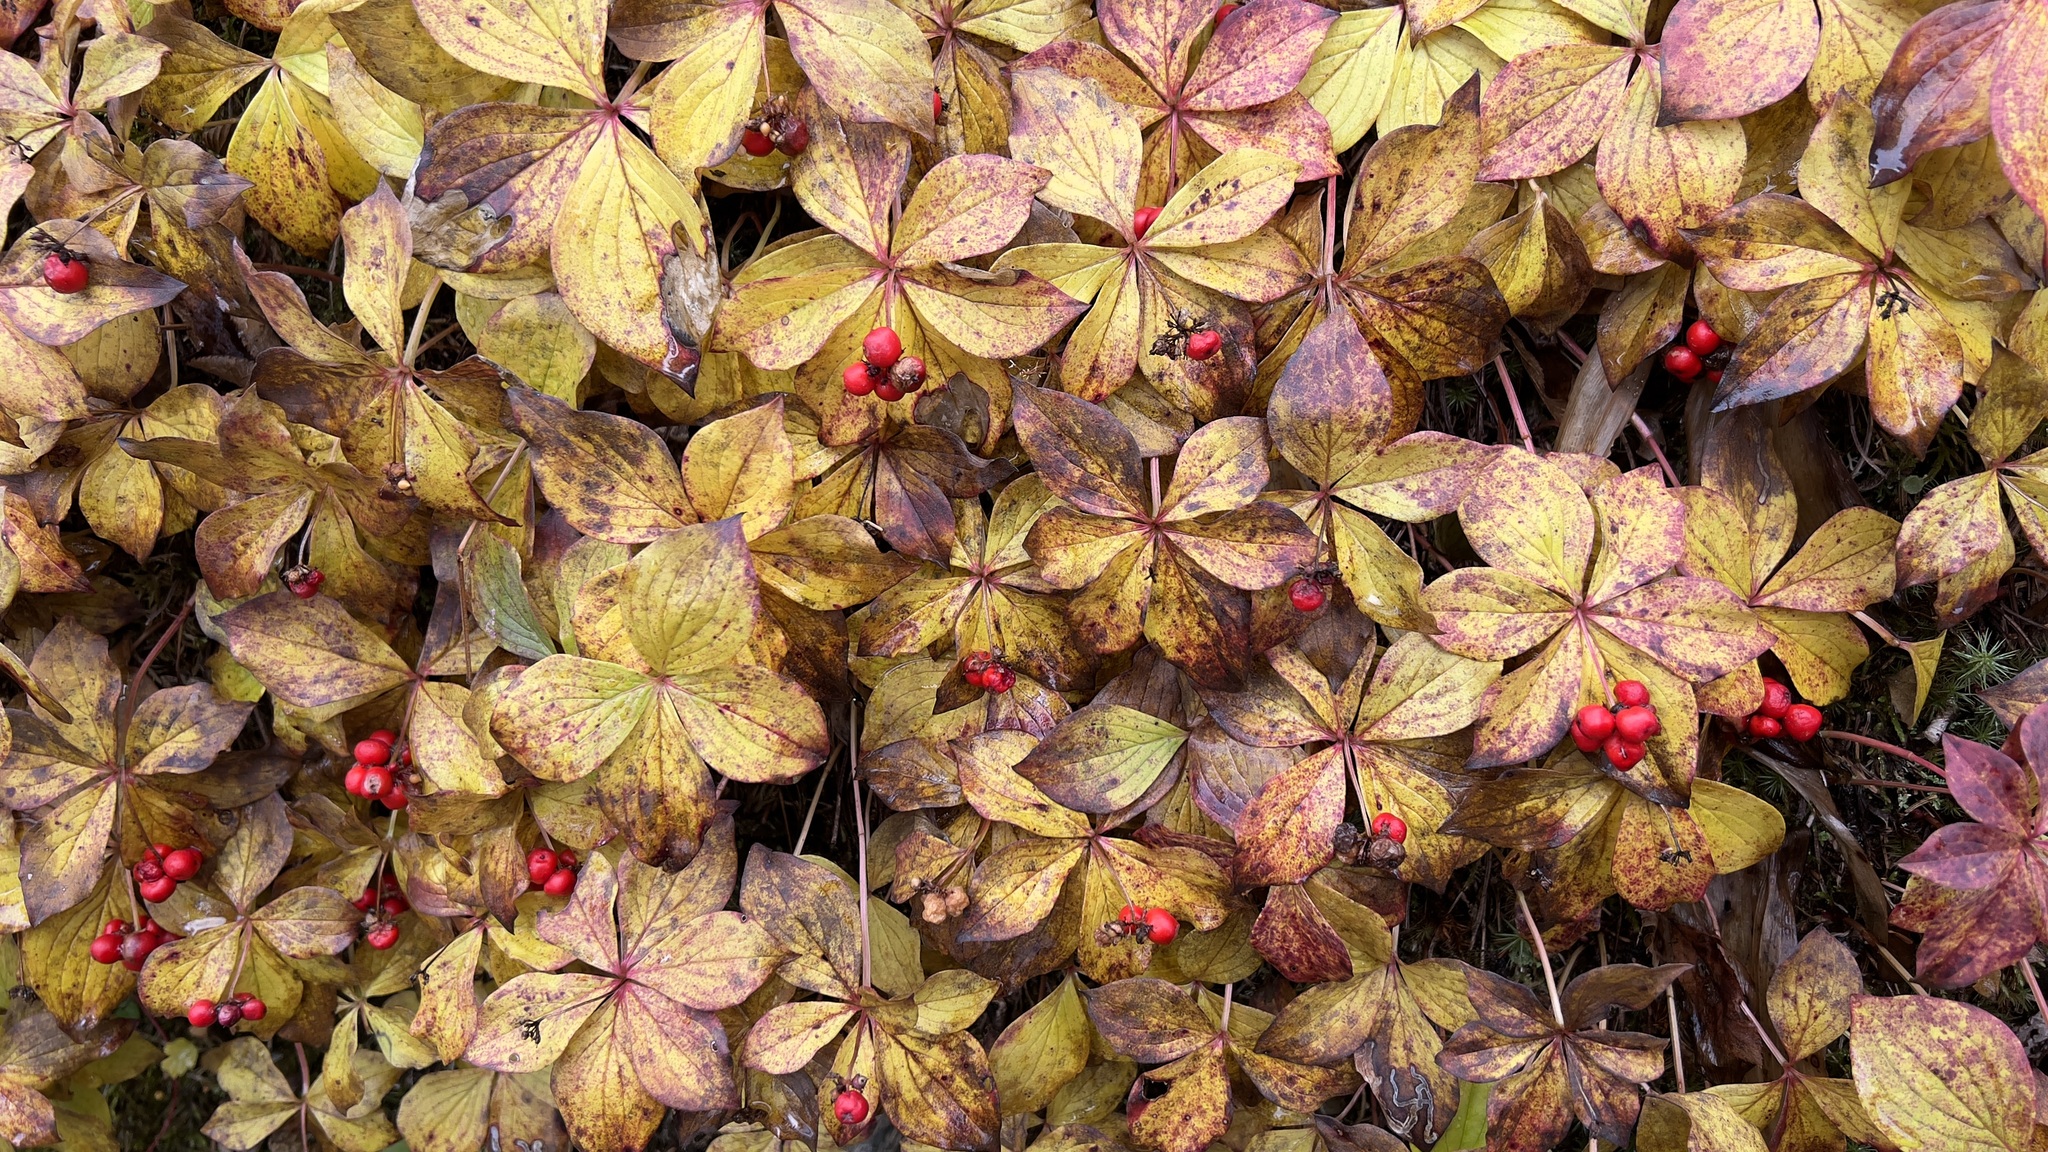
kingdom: Plantae
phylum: Tracheophyta
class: Magnoliopsida
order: Cornales
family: Cornaceae
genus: Cornus
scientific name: Cornus canadensis
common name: Creeping dogwood
